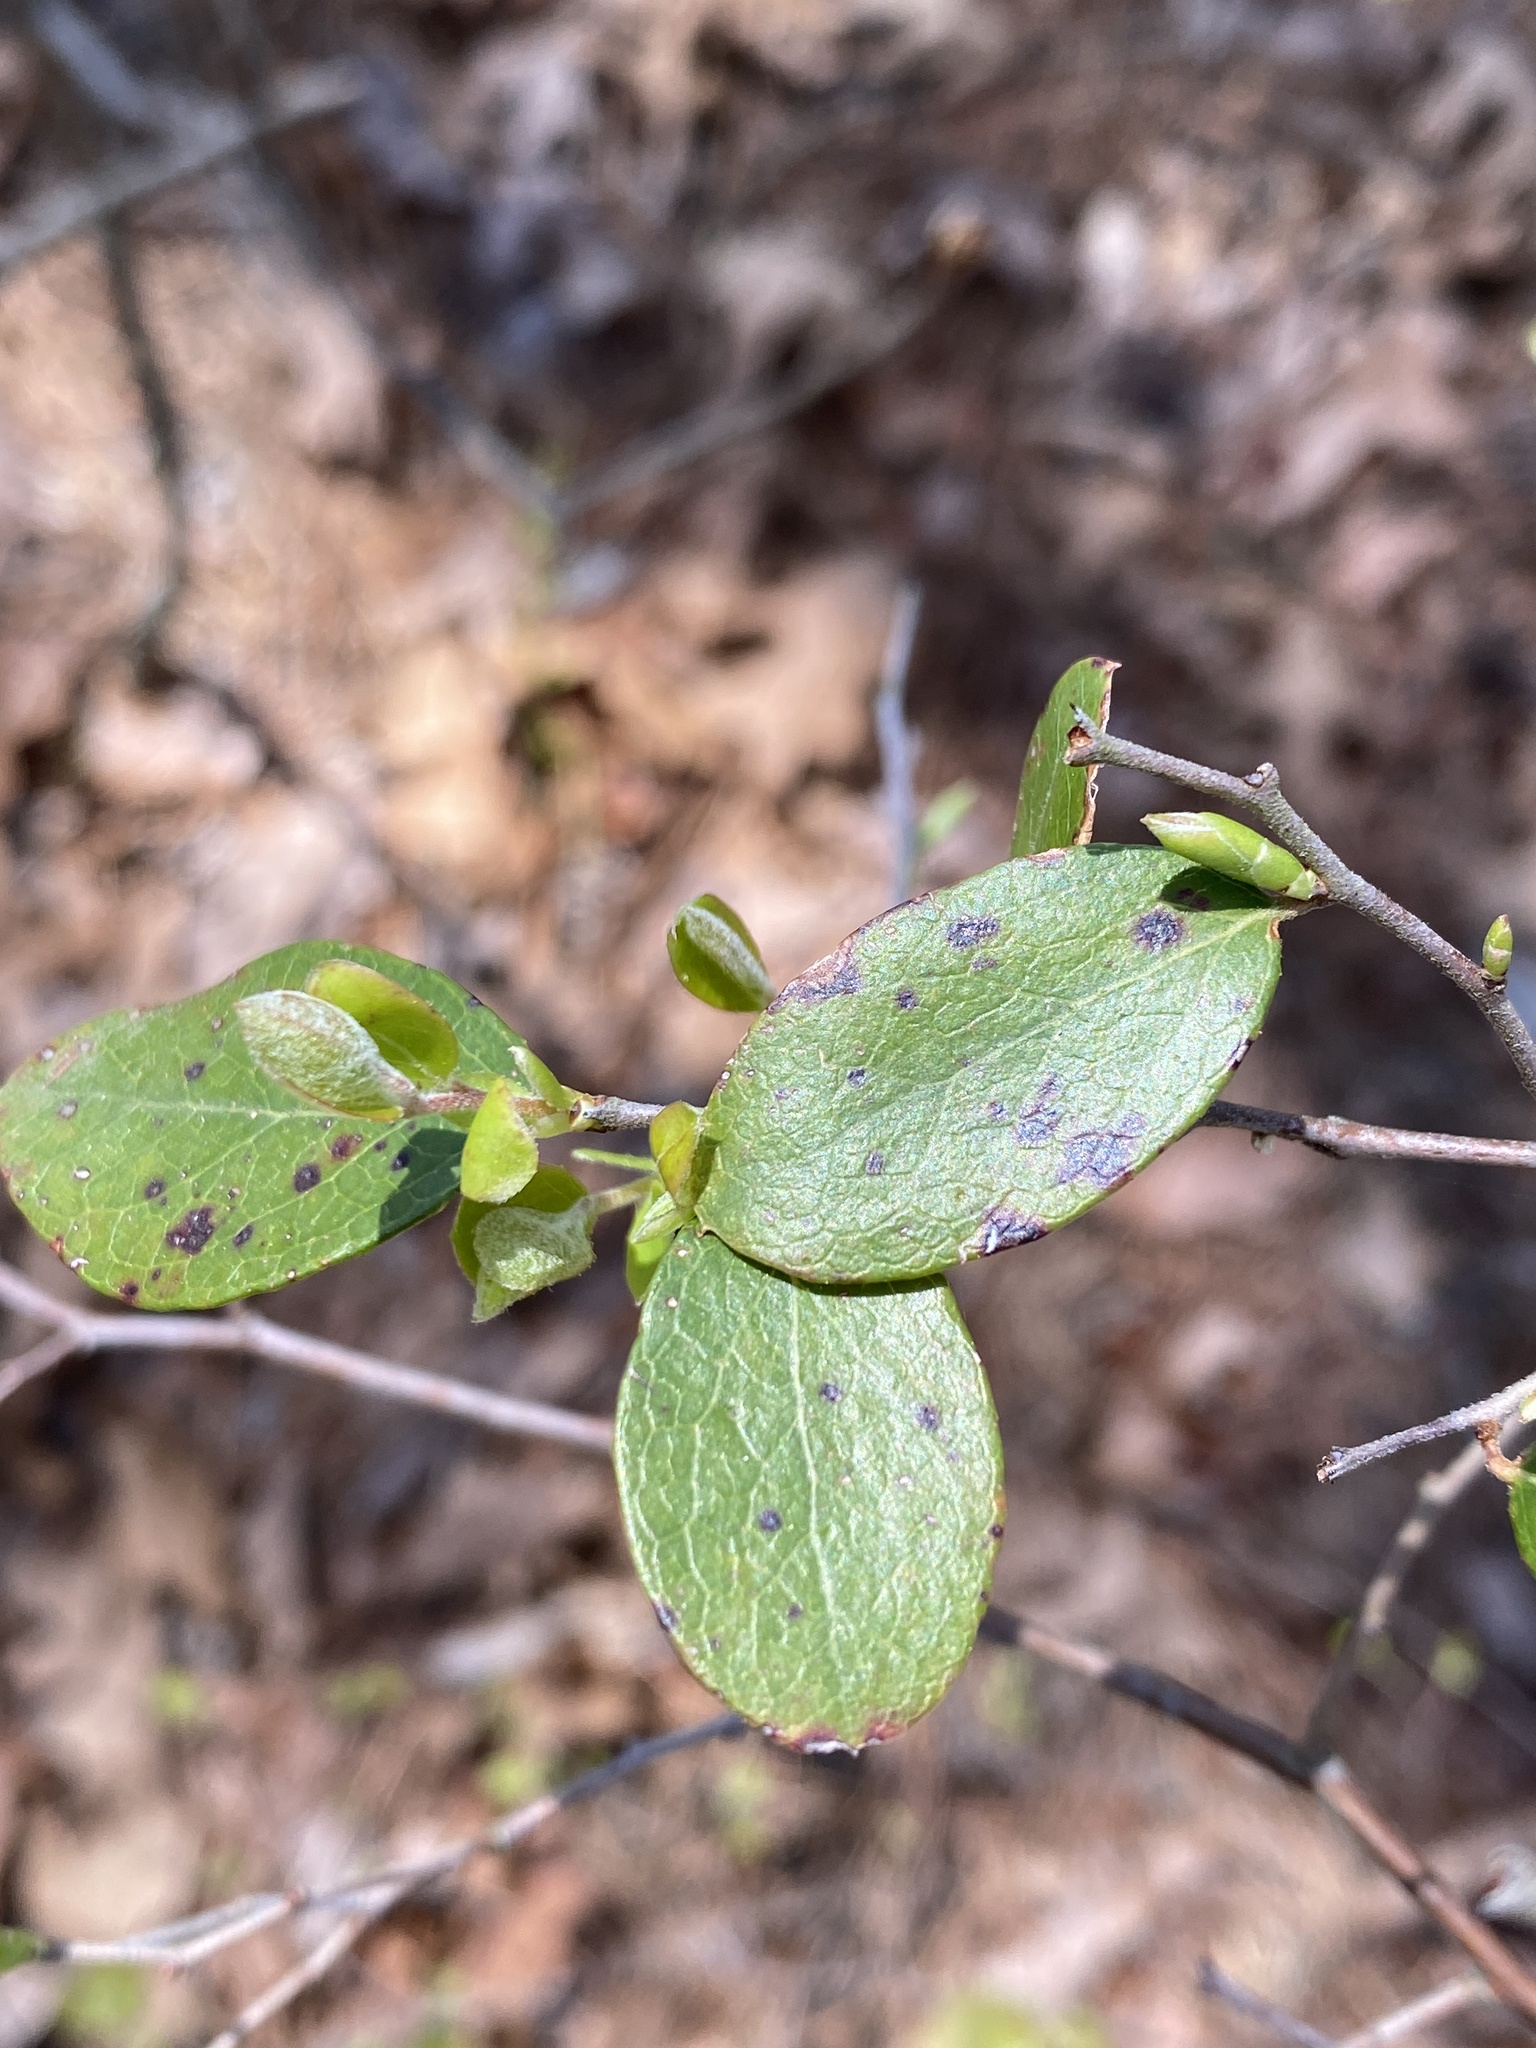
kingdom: Plantae
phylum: Tracheophyta
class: Magnoliopsida
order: Ericales
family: Ericaceae
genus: Vaccinium
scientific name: Vaccinium arboreum
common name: Farkleberry
